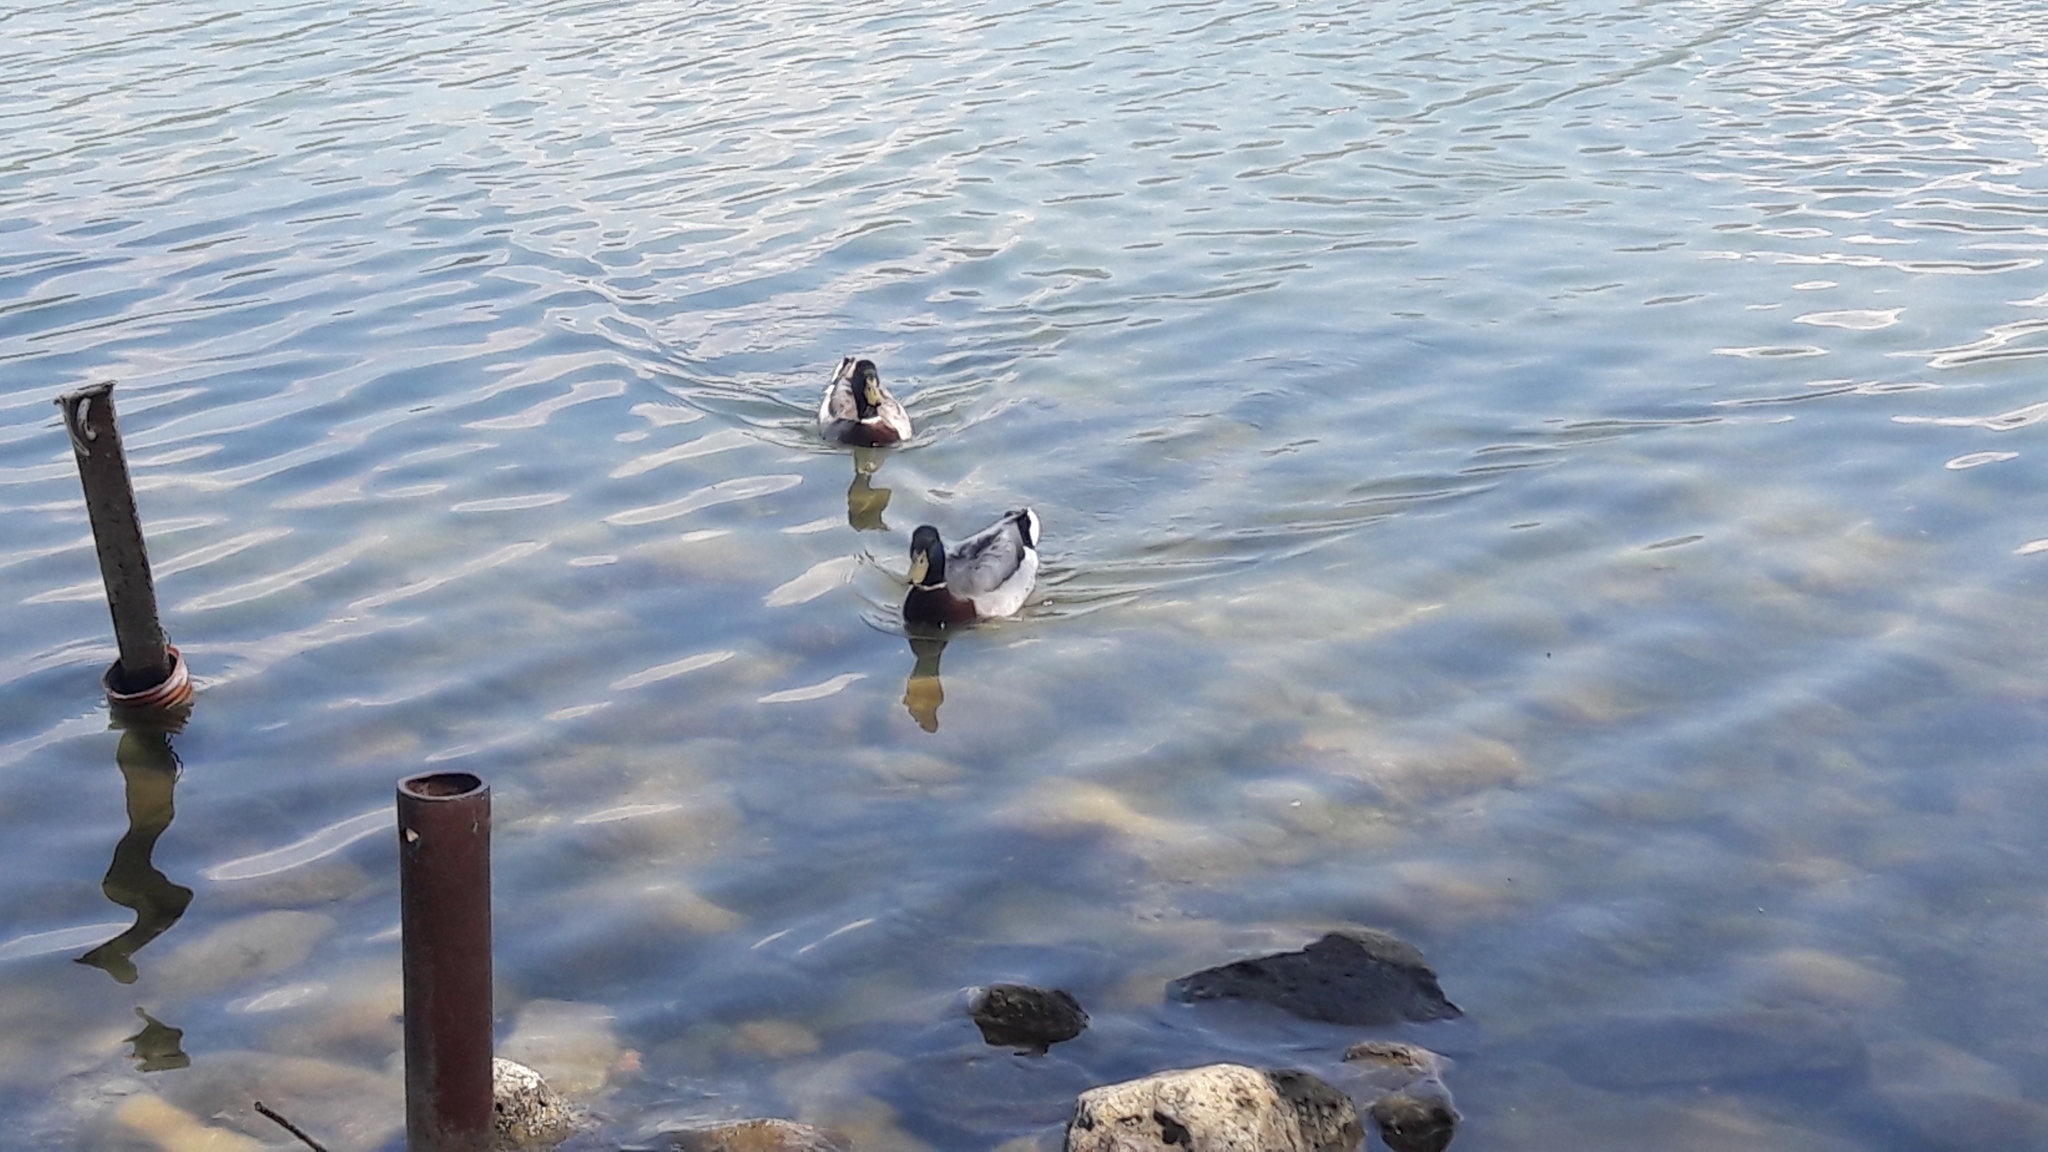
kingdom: Animalia
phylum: Chordata
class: Aves
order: Anseriformes
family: Anatidae
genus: Anas
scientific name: Anas platyrhynchos
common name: Mallard
